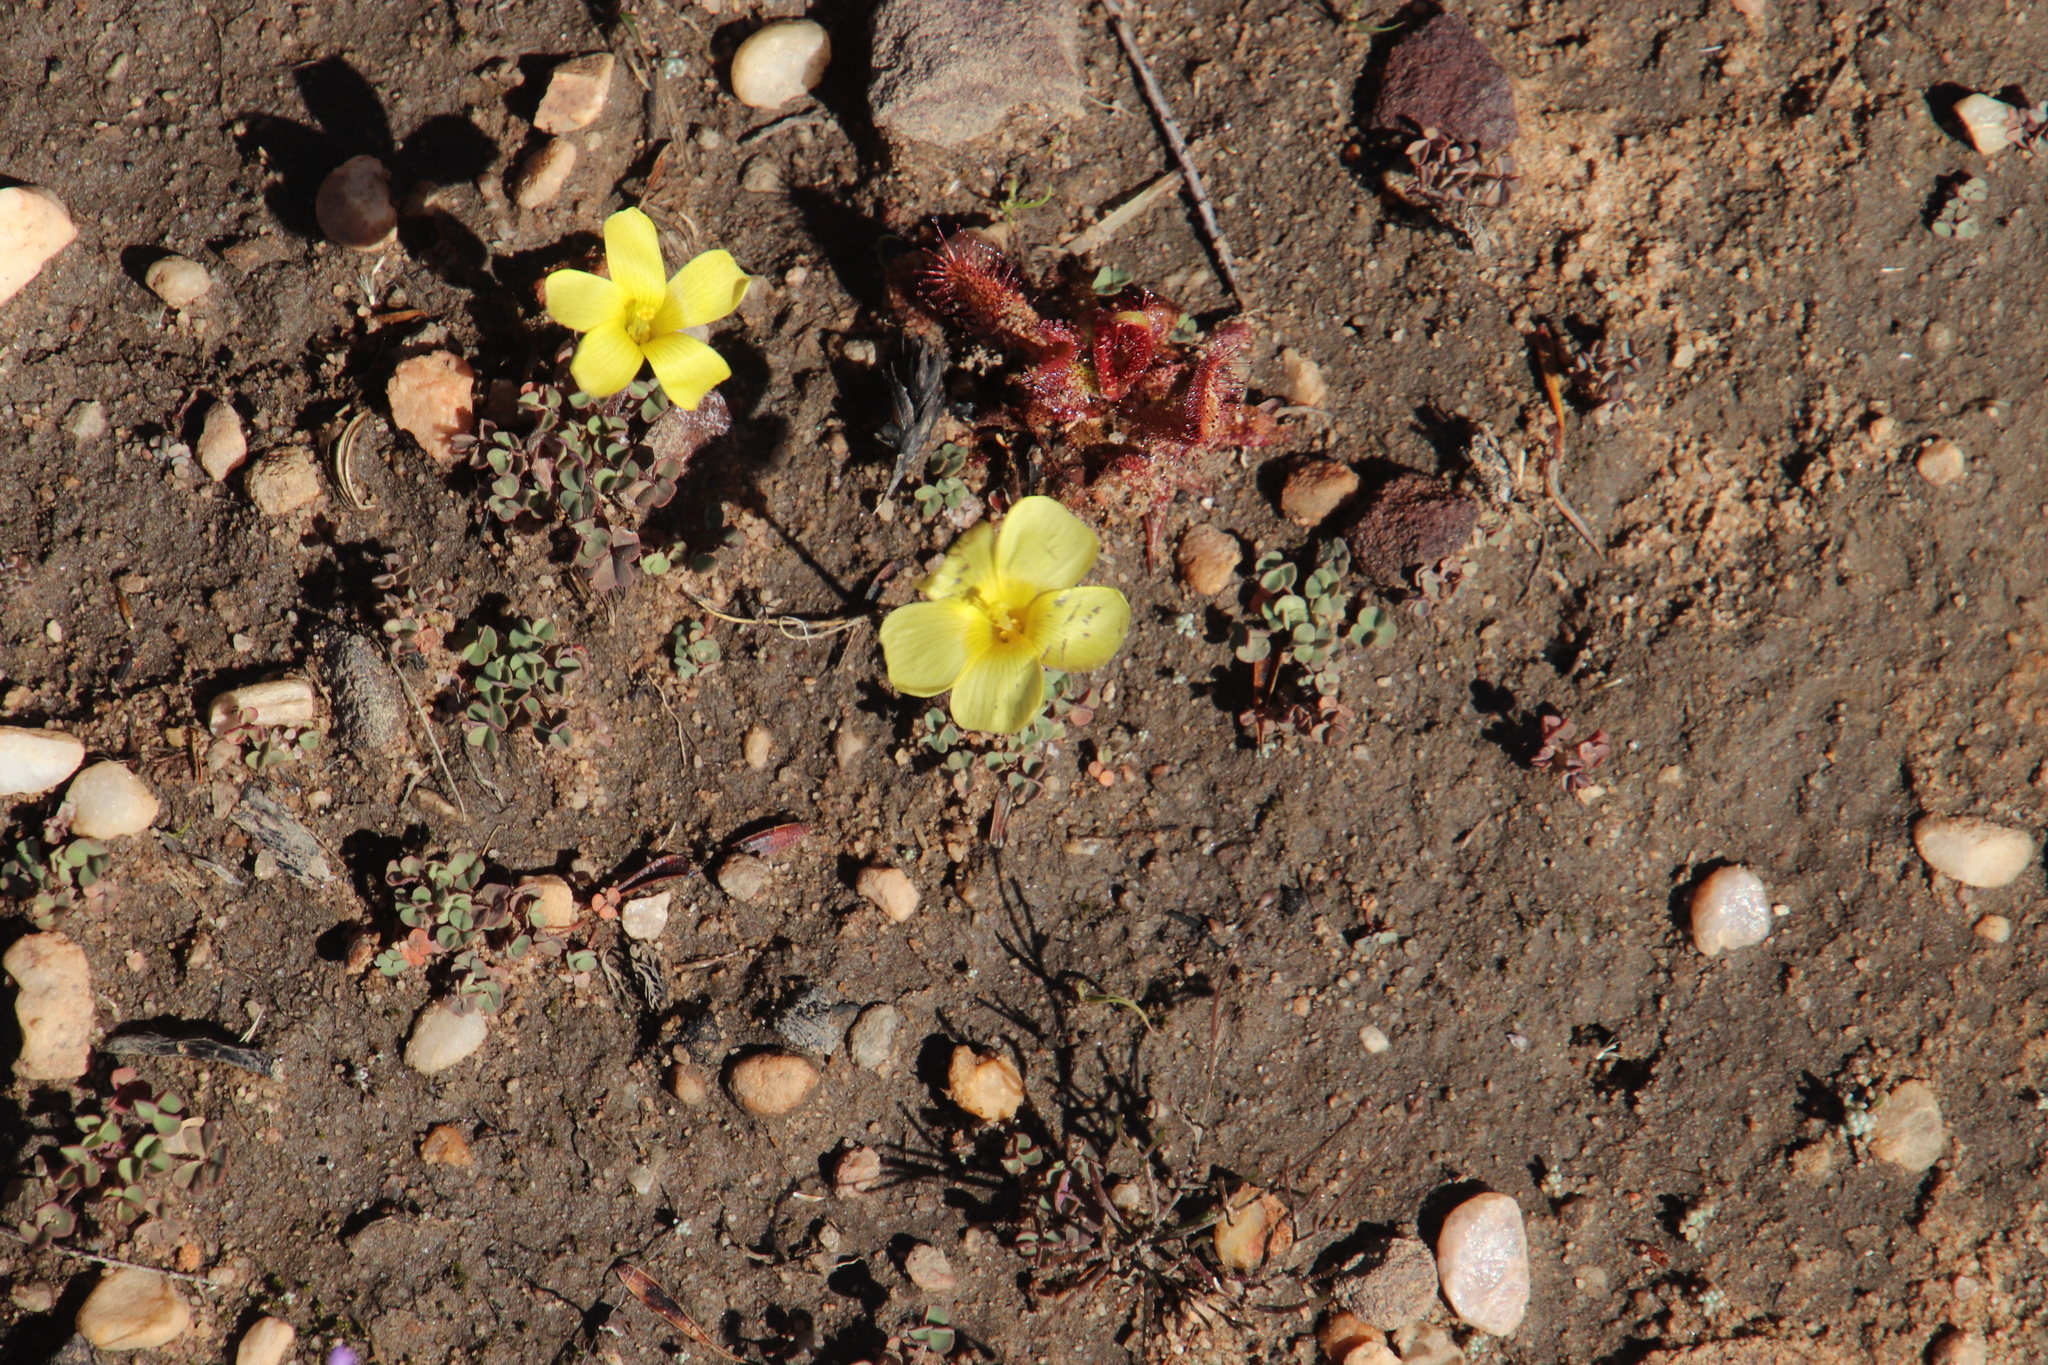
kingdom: Plantae
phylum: Tracheophyta
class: Magnoliopsida
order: Oxalidales
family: Oxalidaceae
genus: Oxalis
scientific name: Oxalis obtusa
